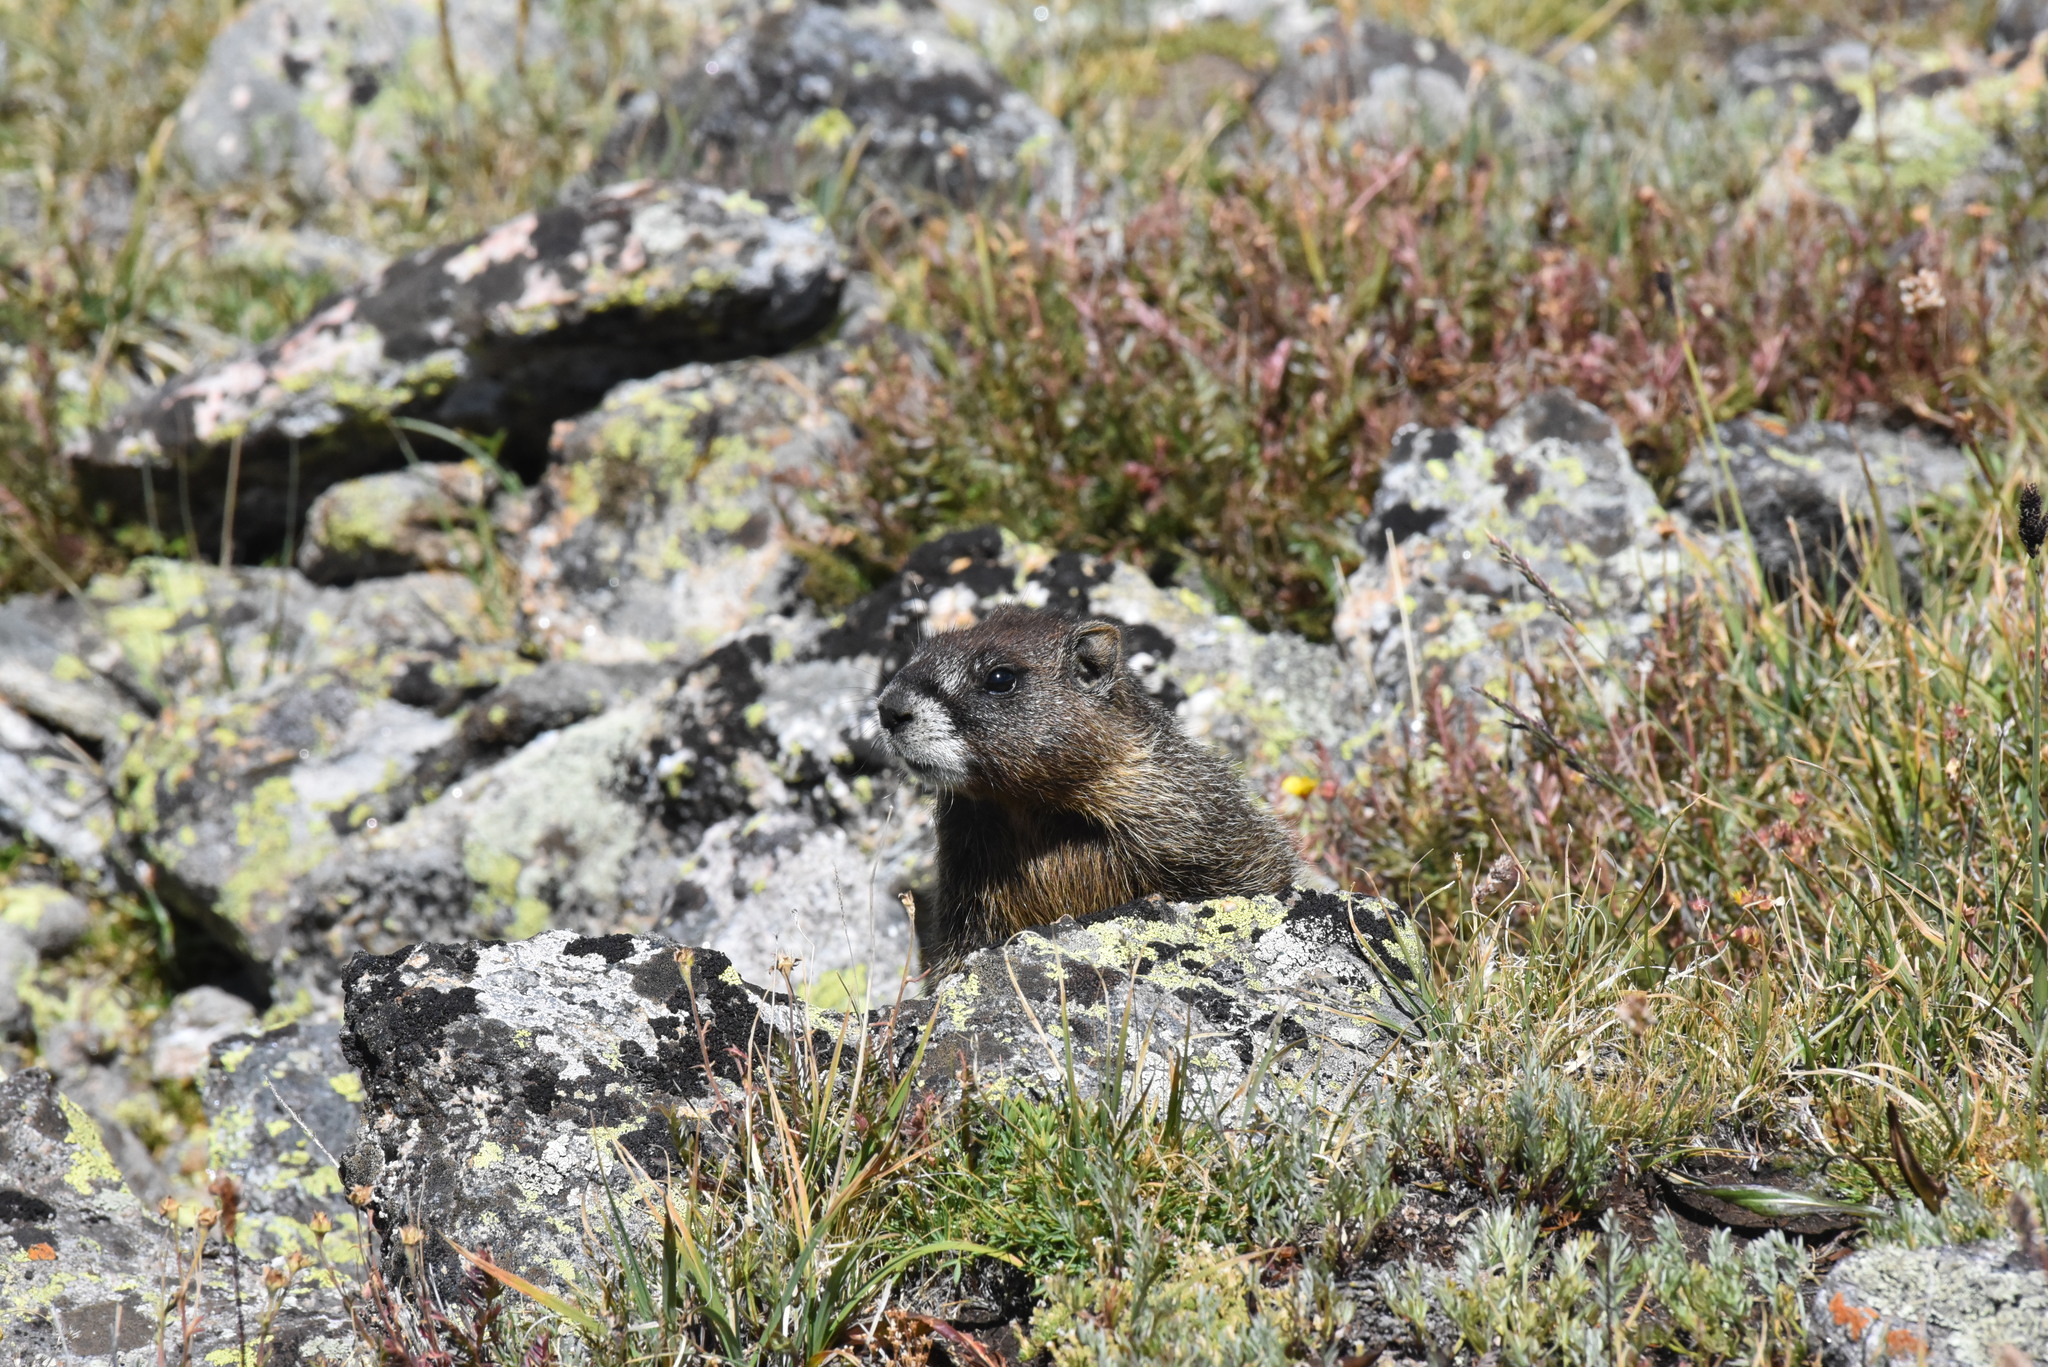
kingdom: Animalia
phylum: Chordata
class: Mammalia
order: Rodentia
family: Sciuridae
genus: Marmota
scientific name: Marmota flaviventris
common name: Yellow-bellied marmot
